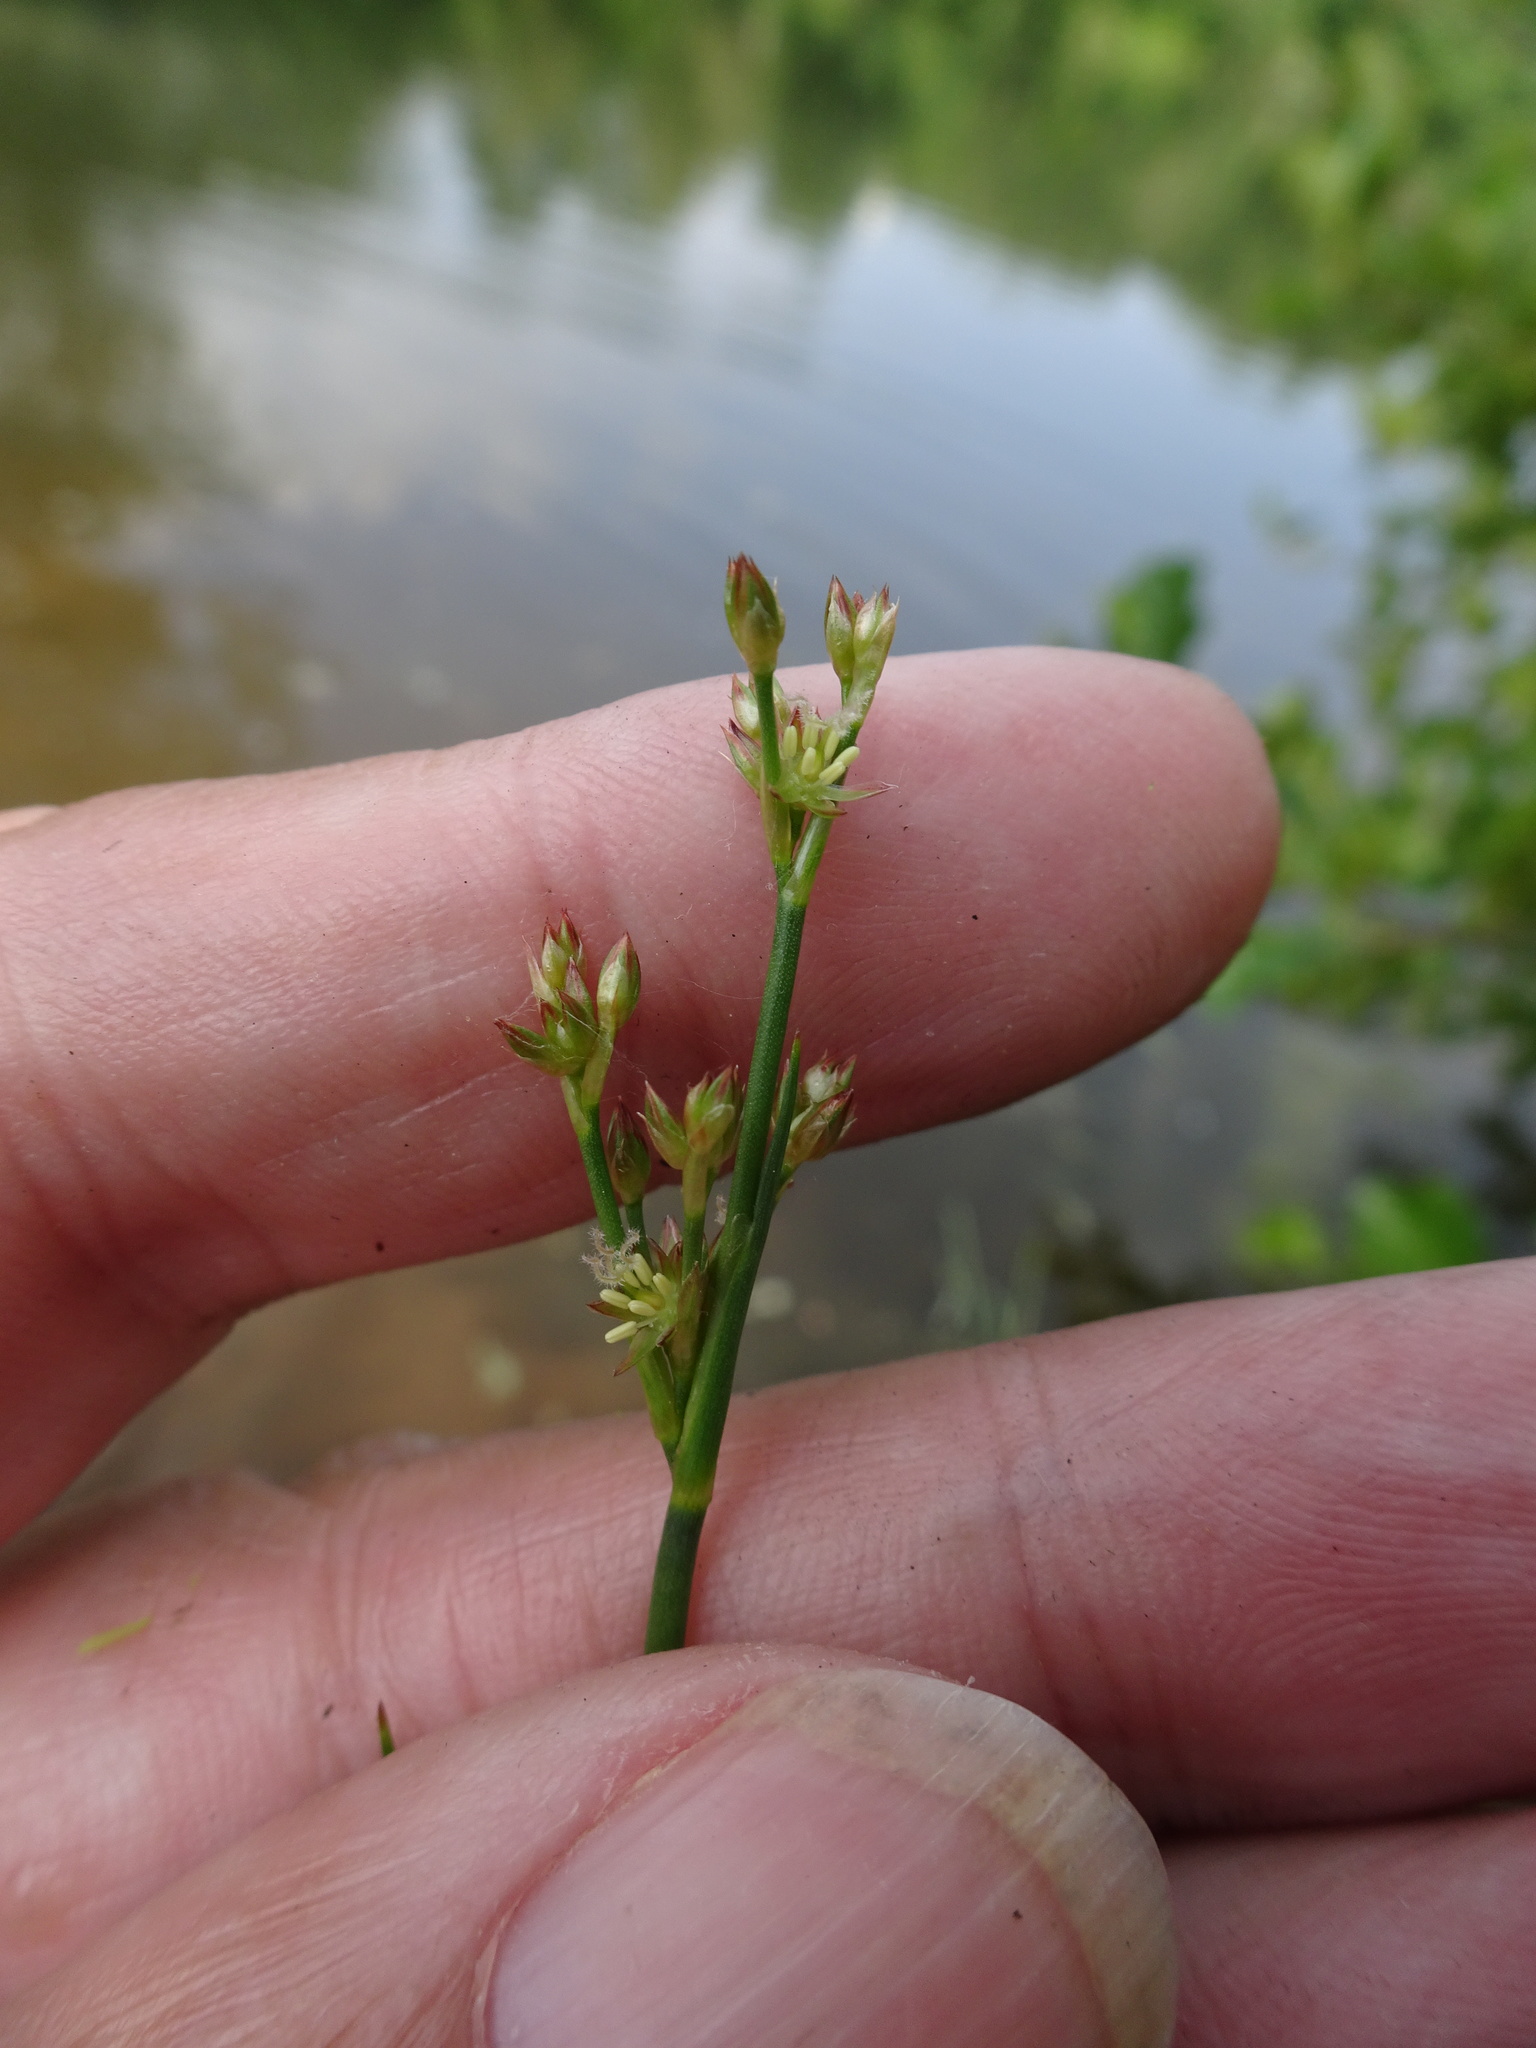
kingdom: Plantae
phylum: Tracheophyta
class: Liliopsida
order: Poales
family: Juncaceae
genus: Juncus
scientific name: Juncus articulatus
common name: Jointed rush
